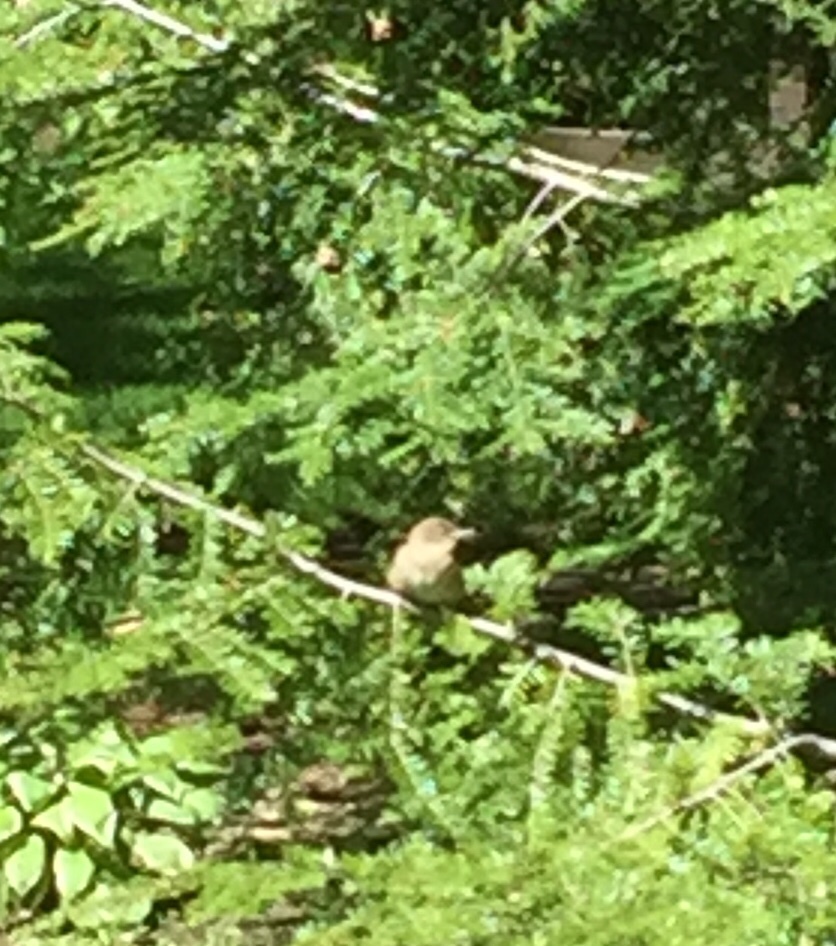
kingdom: Animalia
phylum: Chordata
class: Aves
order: Passeriformes
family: Troglodytidae
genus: Troglodytes
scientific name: Troglodytes aedon
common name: House wren
